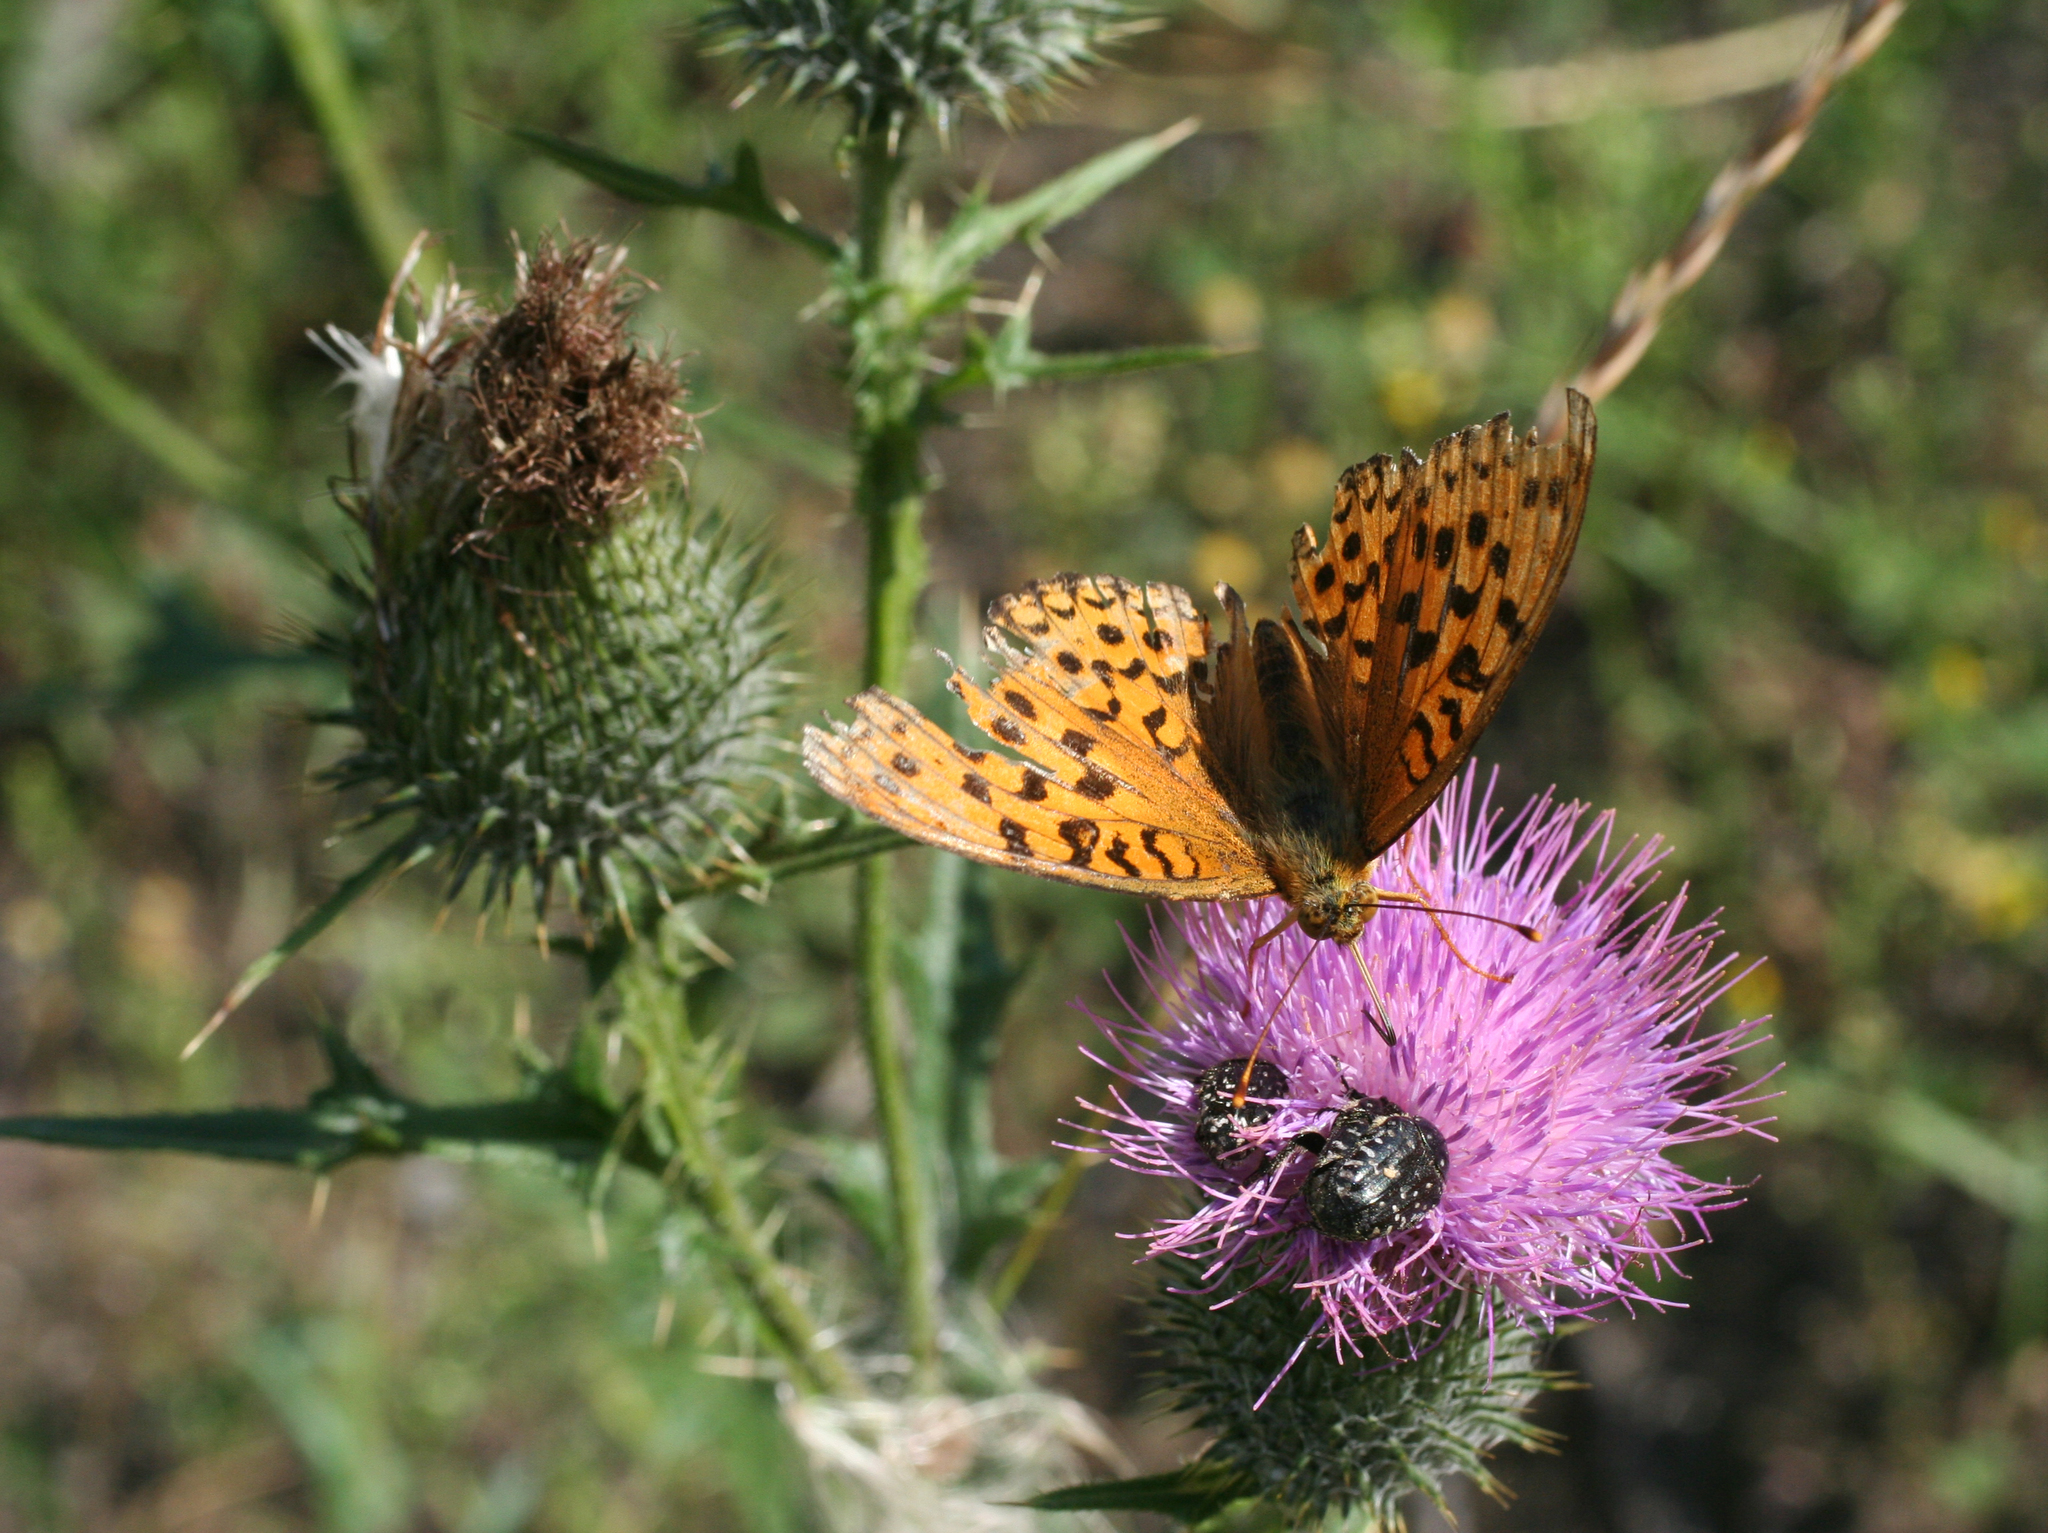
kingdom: Plantae
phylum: Tracheophyta
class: Magnoliopsida
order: Asterales
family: Asteraceae
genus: Cirsium
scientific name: Cirsium vulgare
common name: Bull thistle
